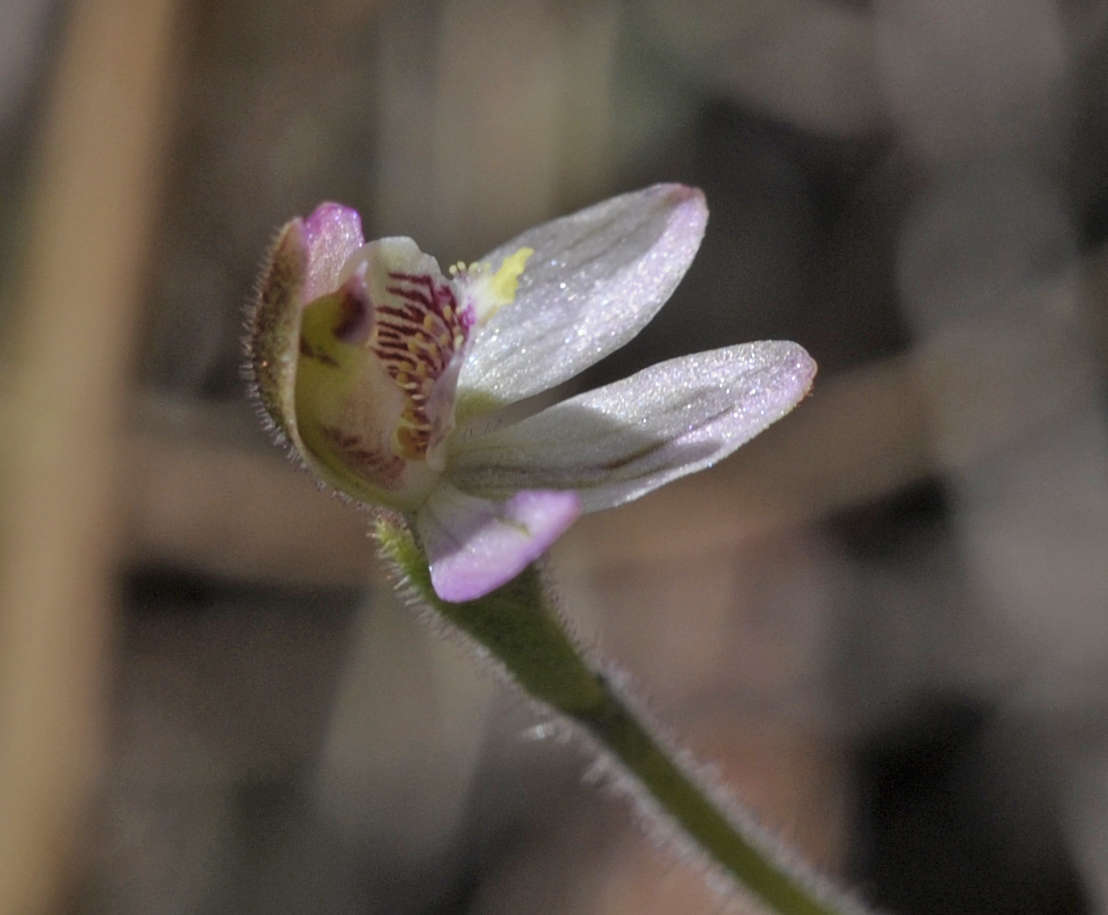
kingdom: Plantae
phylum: Tracheophyta
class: Liliopsida
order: Asparagales
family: Orchidaceae
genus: Caladenia
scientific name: Caladenia pusilla
